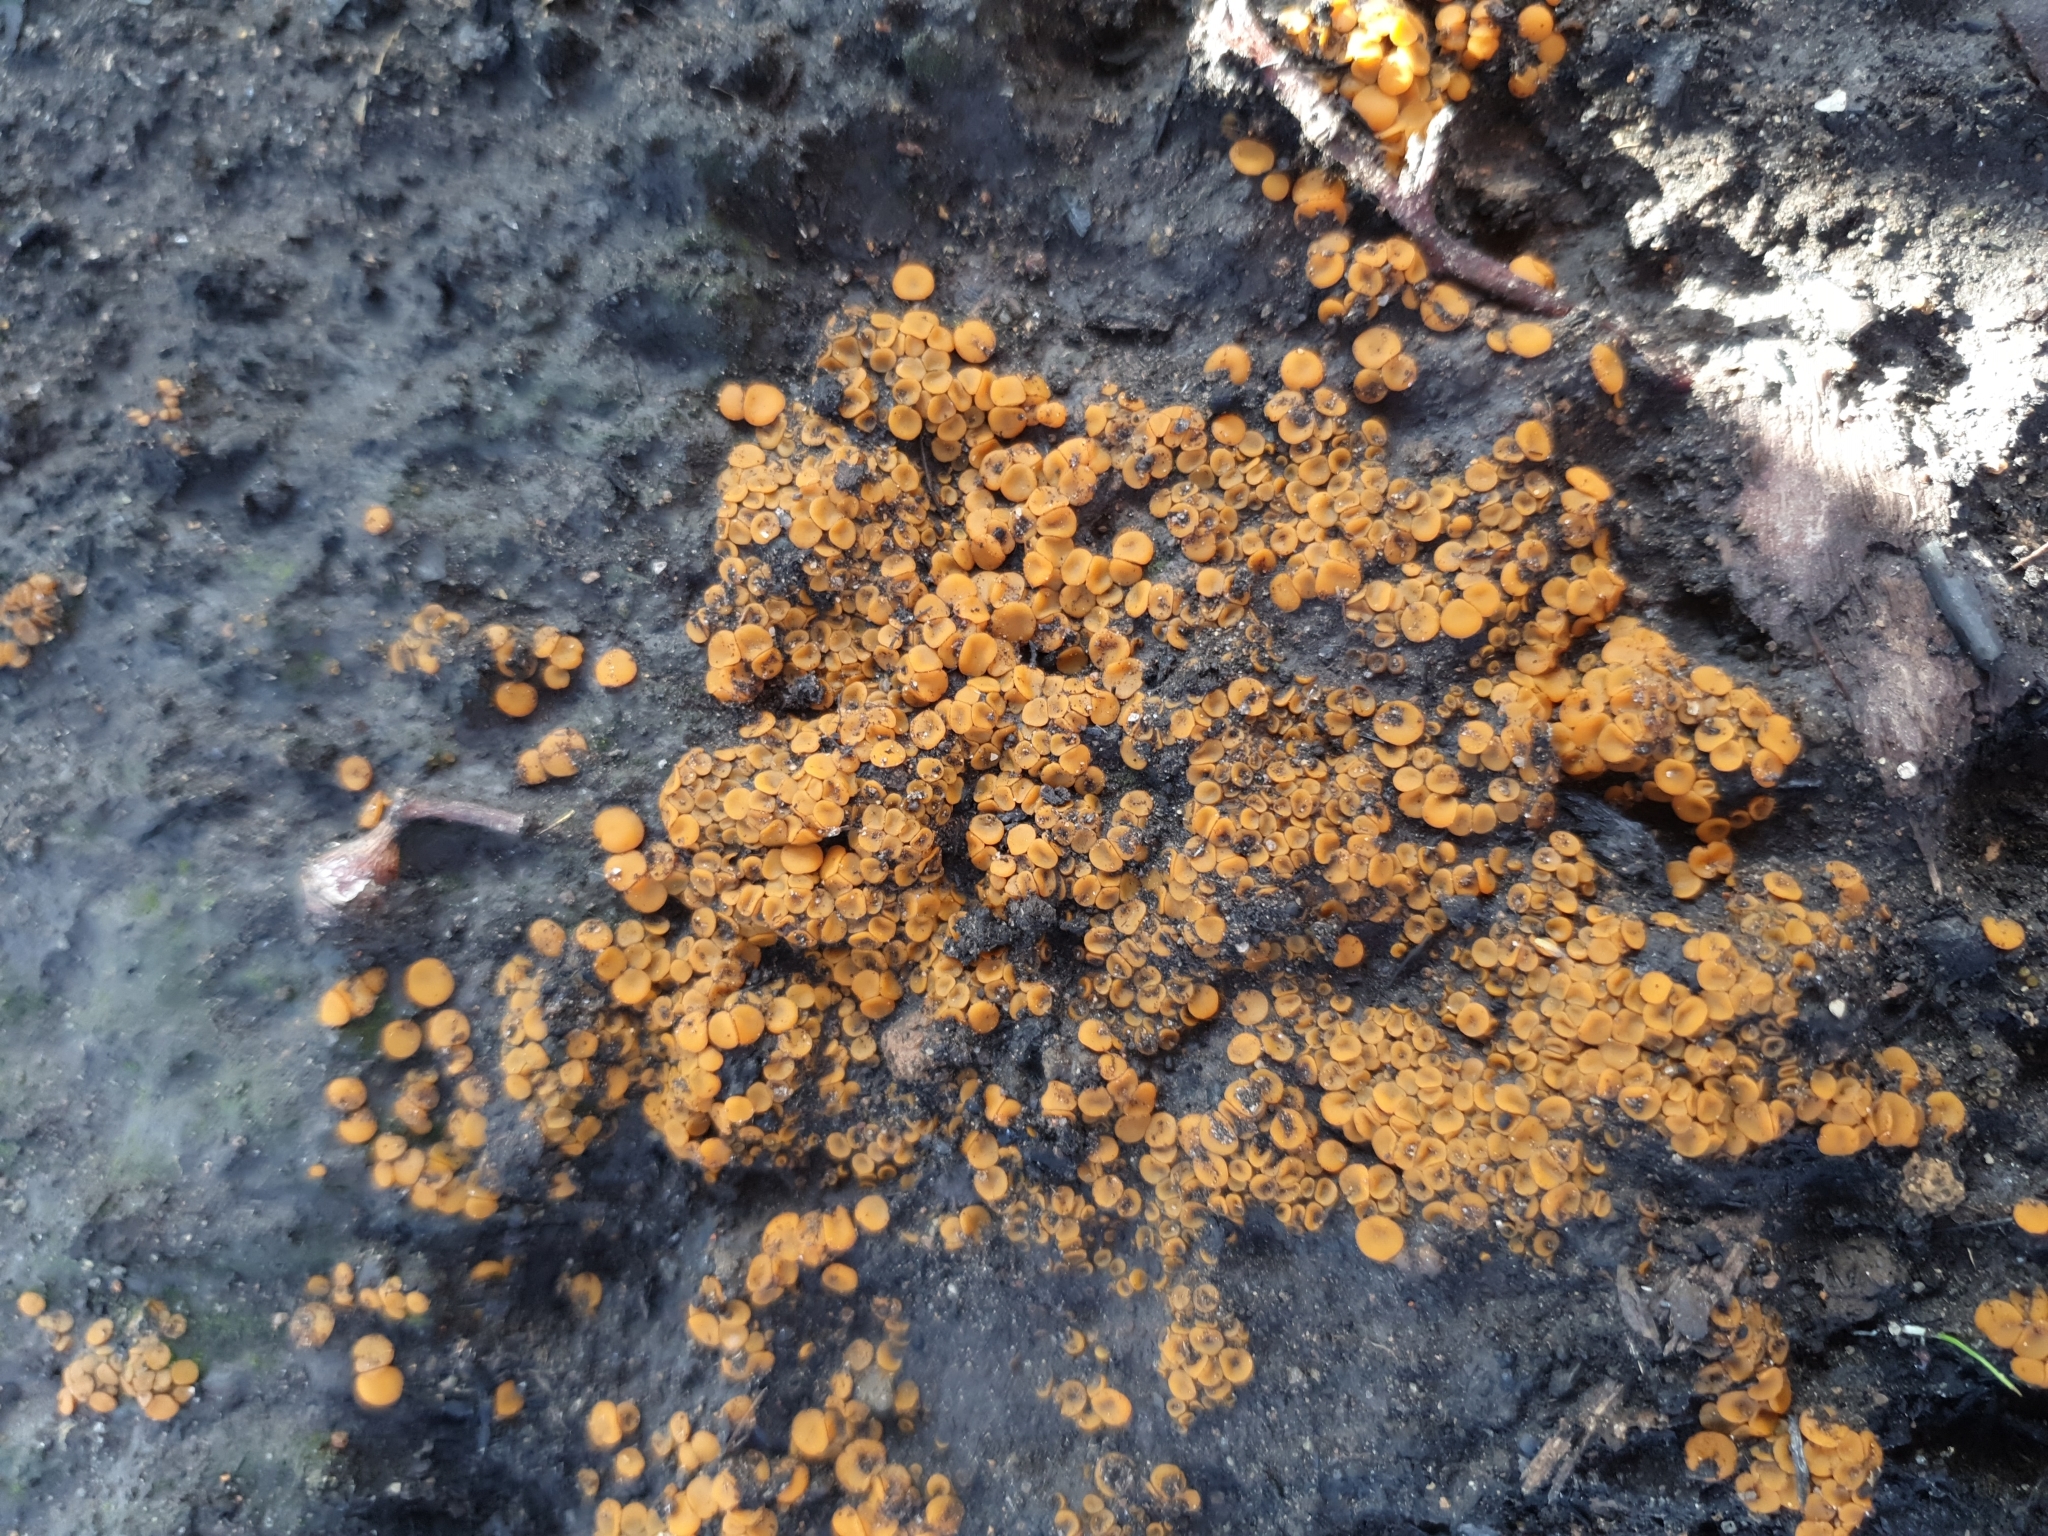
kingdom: Fungi
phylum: Ascomycota
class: Pezizomycetes
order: Pezizales
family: Pyronemataceae
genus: Anthracobia
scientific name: Anthracobia muelleri
